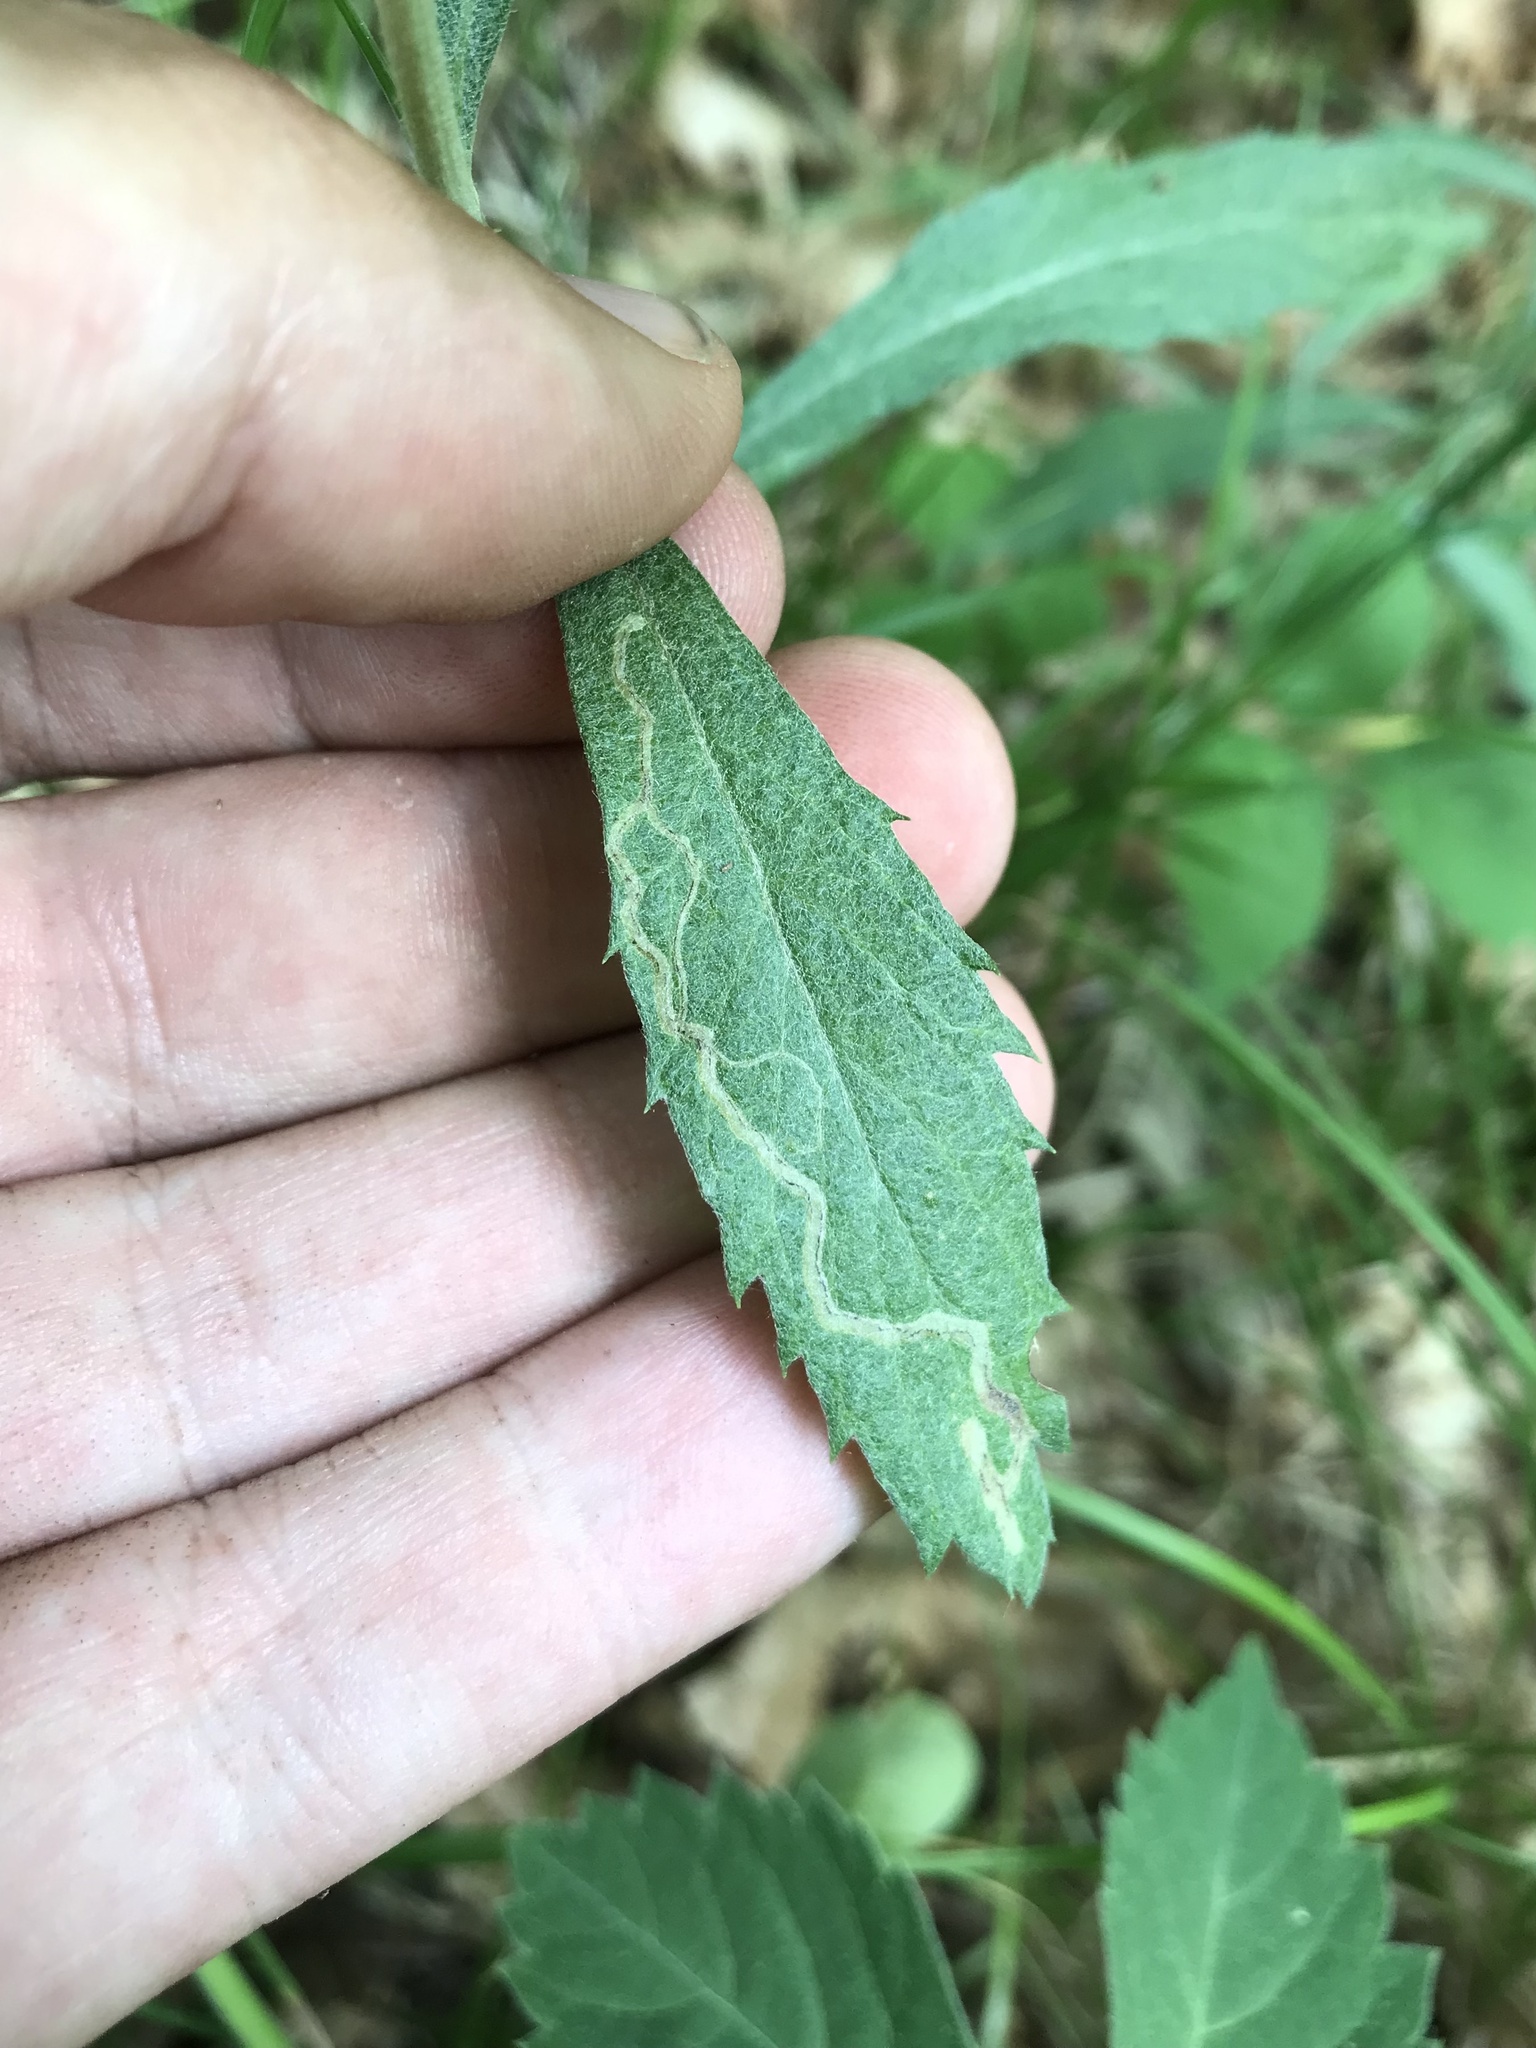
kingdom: Animalia
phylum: Arthropoda
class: Insecta
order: Diptera
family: Agromyzidae
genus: Liriomyza
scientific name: Liriomyza ptarmicae
